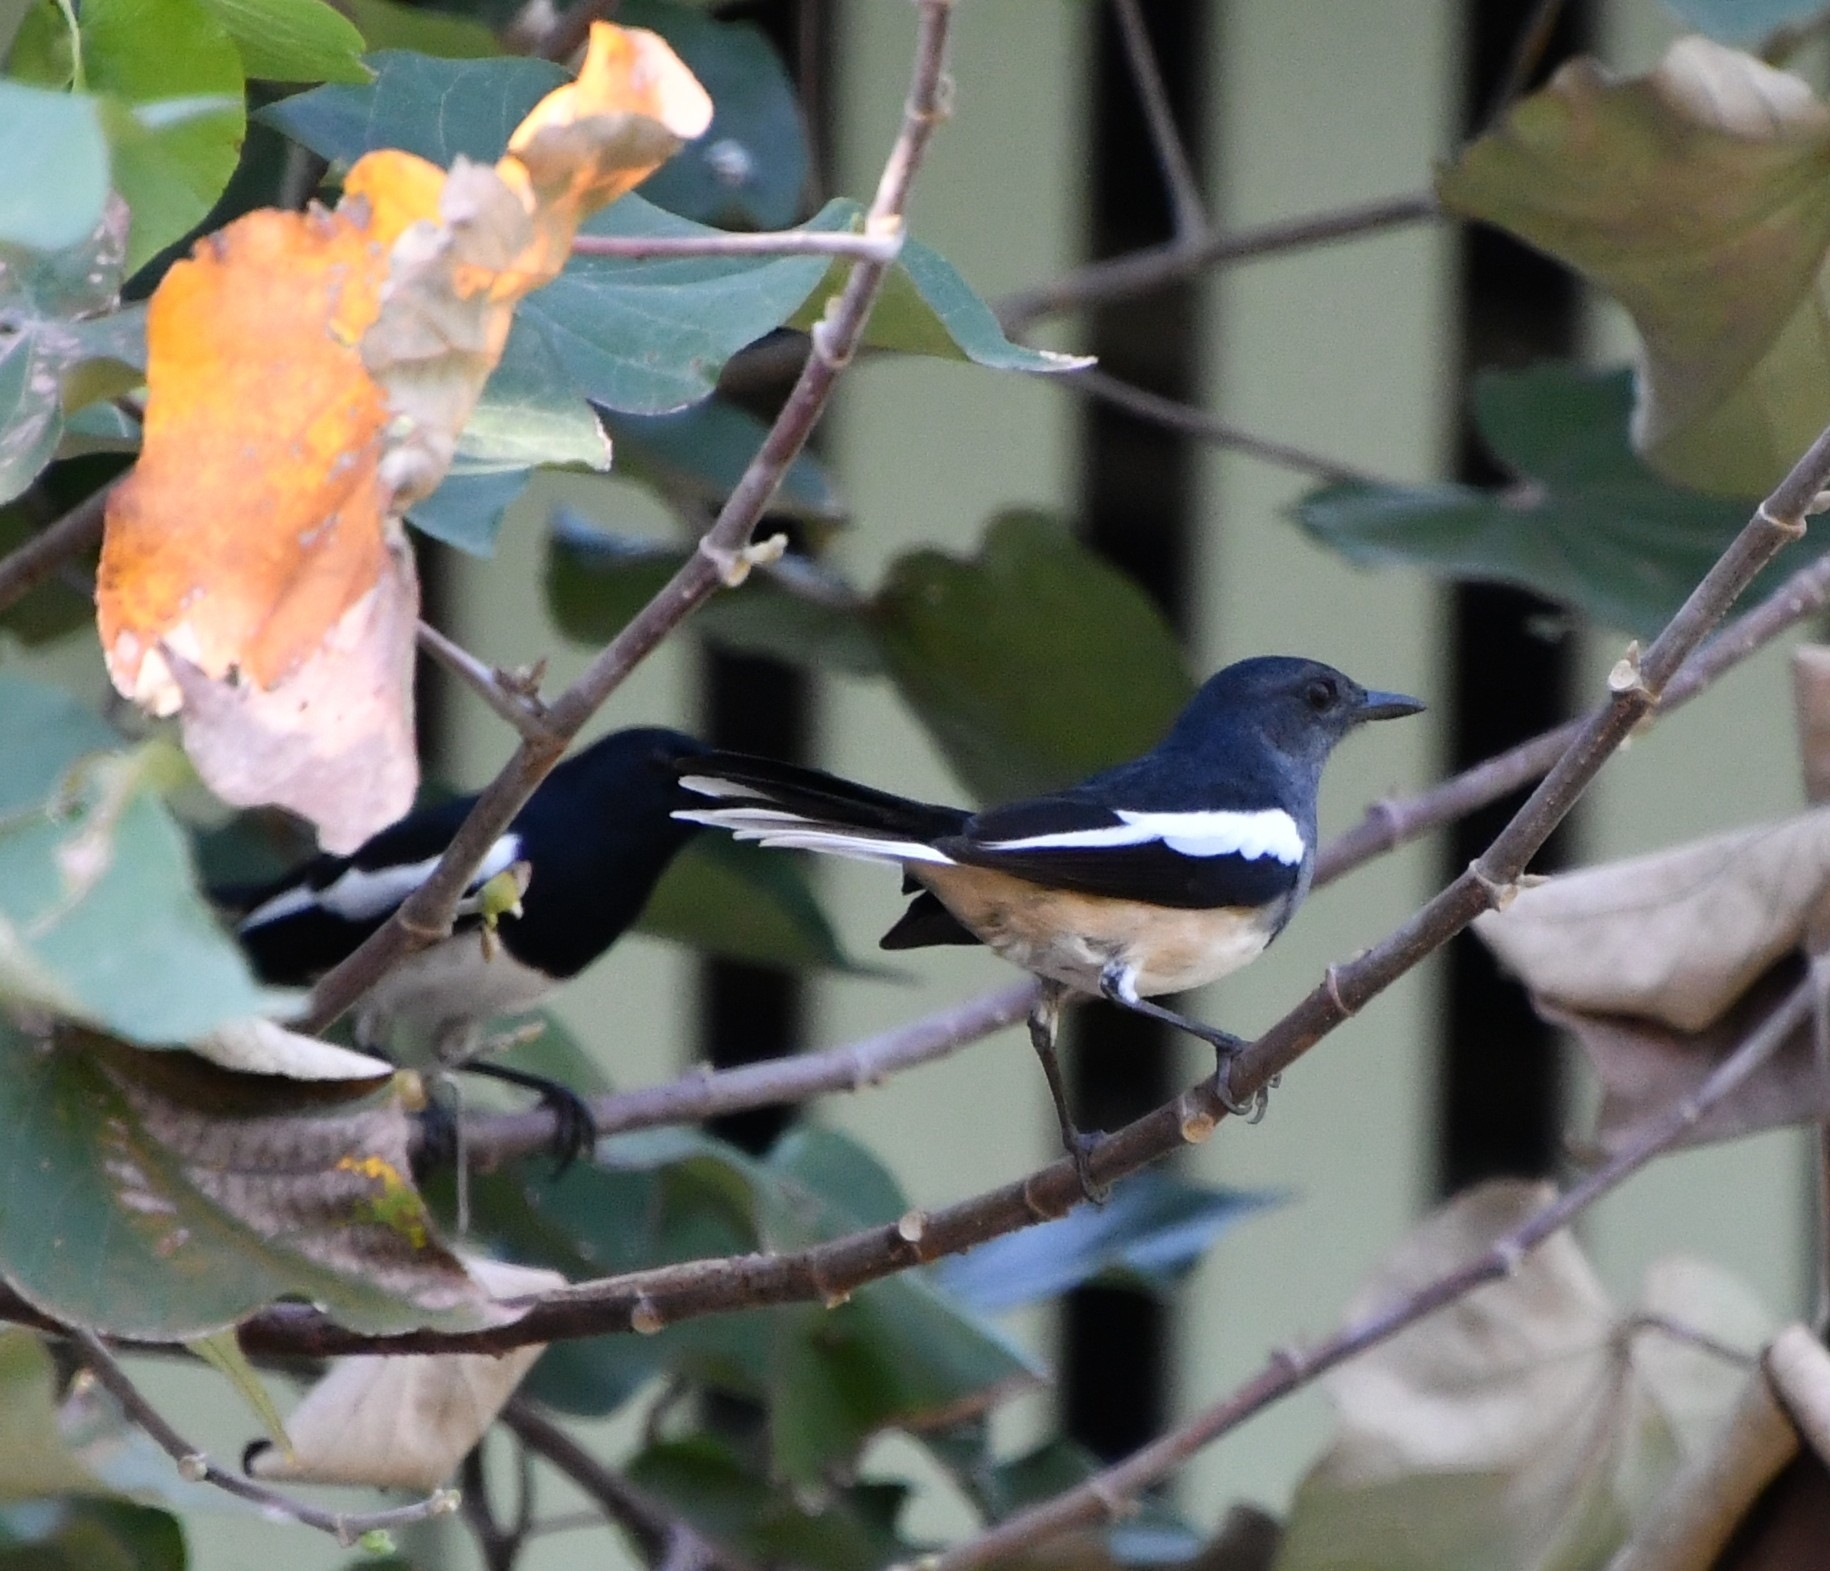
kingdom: Animalia
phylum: Chordata
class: Aves
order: Passeriformes
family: Muscicapidae
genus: Copsychus
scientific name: Copsychus saularis
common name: Oriental magpie-robin
